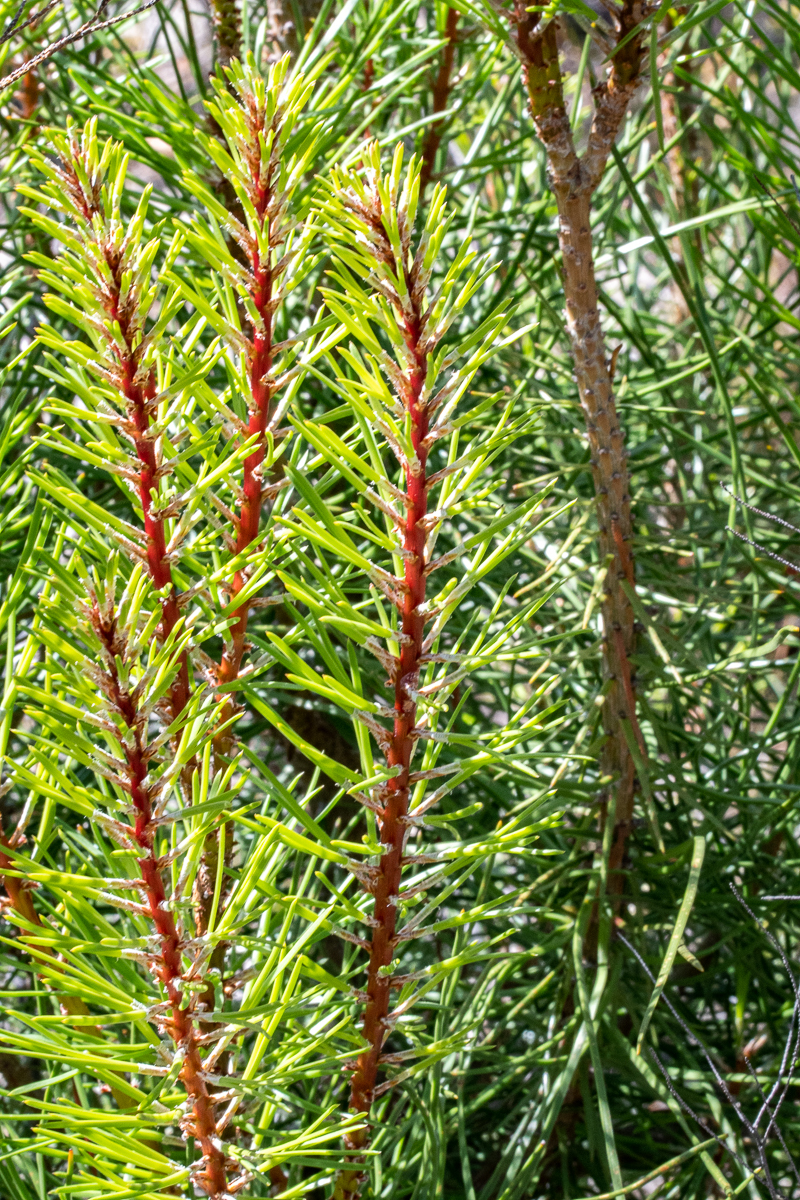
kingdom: Plantae
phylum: Tracheophyta
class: Pinopsida
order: Pinales
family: Pinaceae
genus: Pinus
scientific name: Pinus pinaster
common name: Maritime pine
